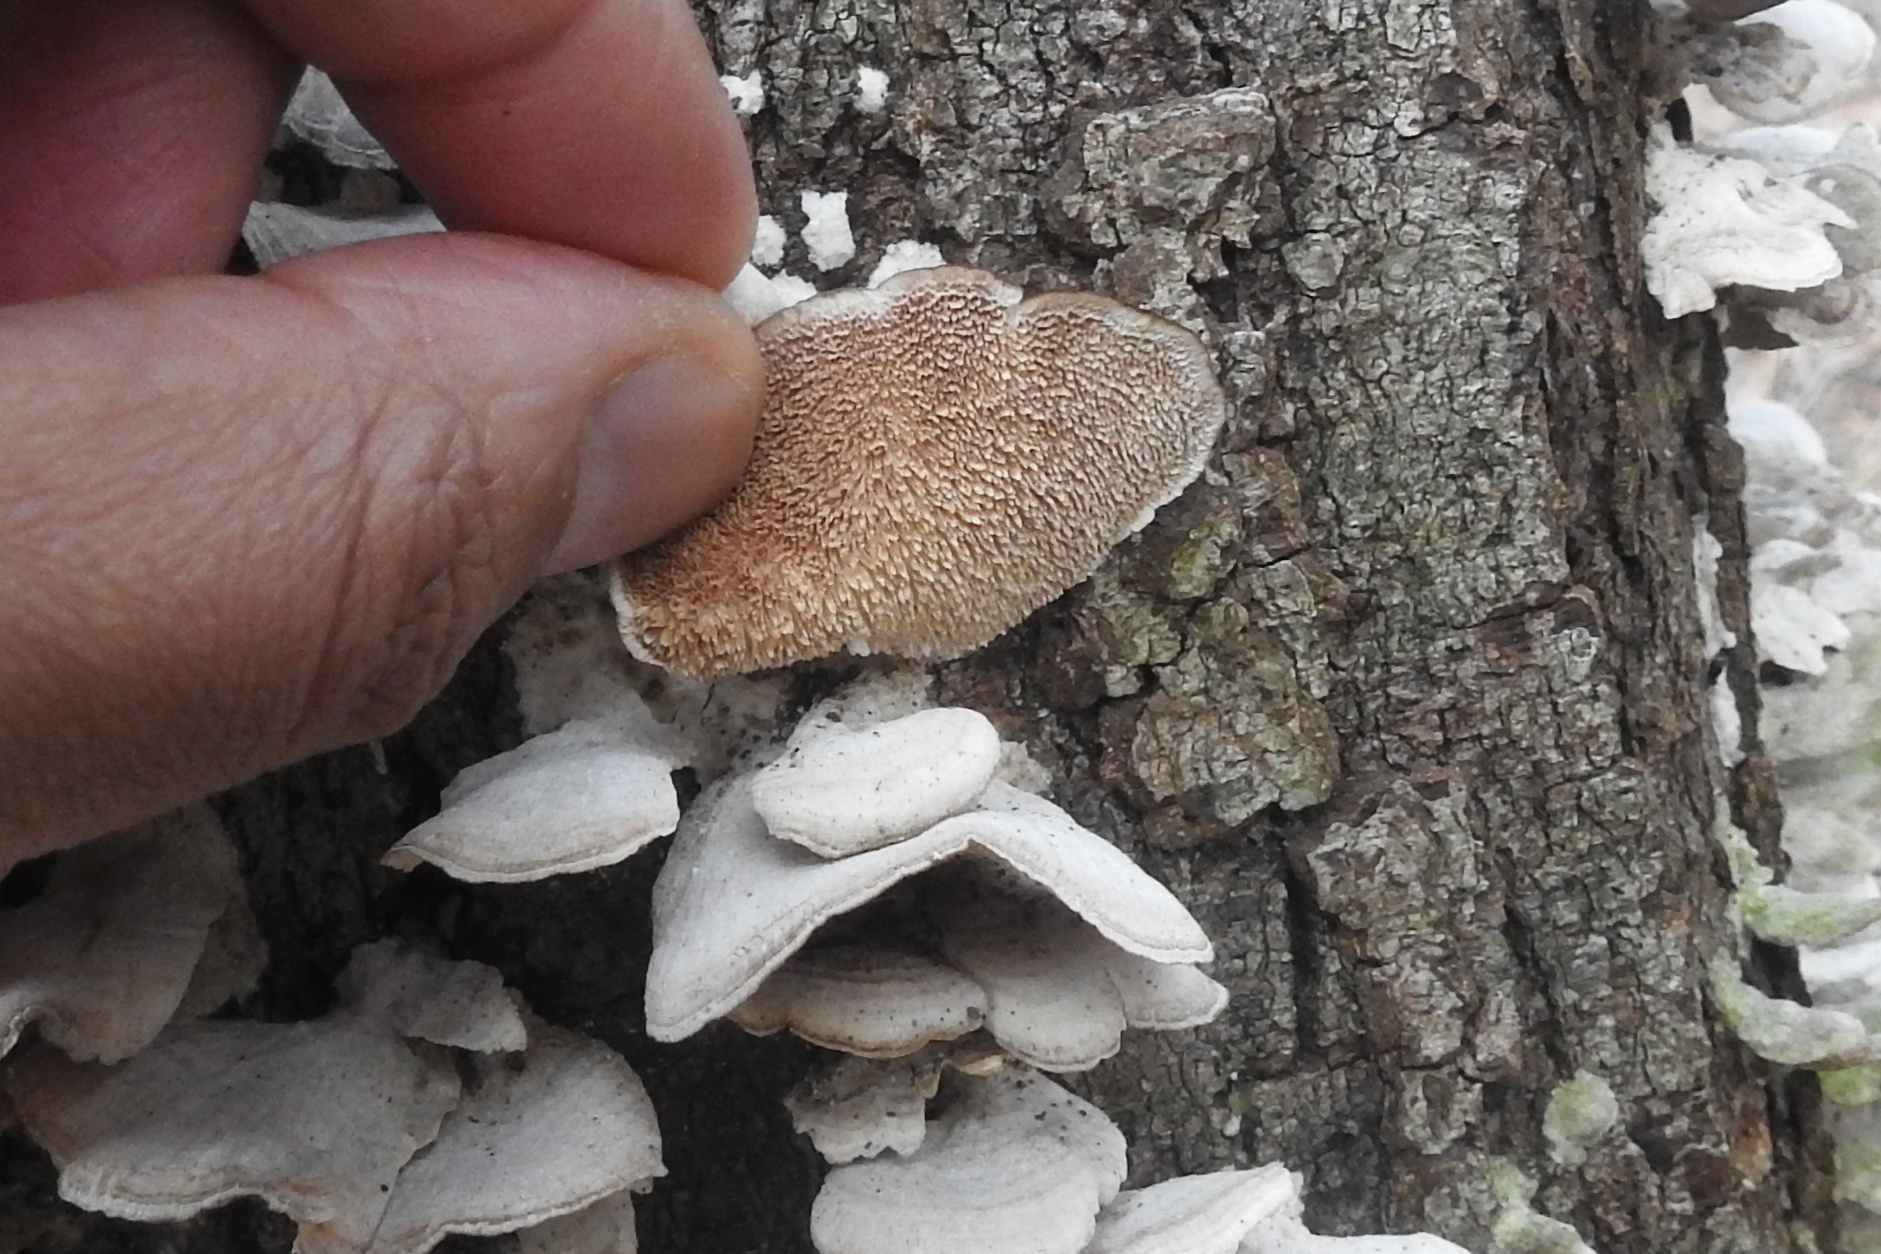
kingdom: Fungi
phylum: Basidiomycota
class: Agaricomycetes
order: Hymenochaetales
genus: Trichaptum
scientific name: Trichaptum biforme
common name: Violet-toothed polypore
